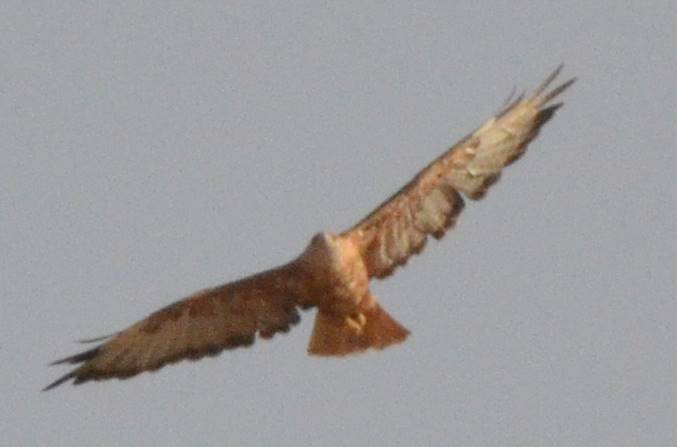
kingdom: Animalia
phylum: Chordata
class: Aves
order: Accipitriformes
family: Accipitridae
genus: Buteo
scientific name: Buteo rufinus
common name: Long-legged buzzard
